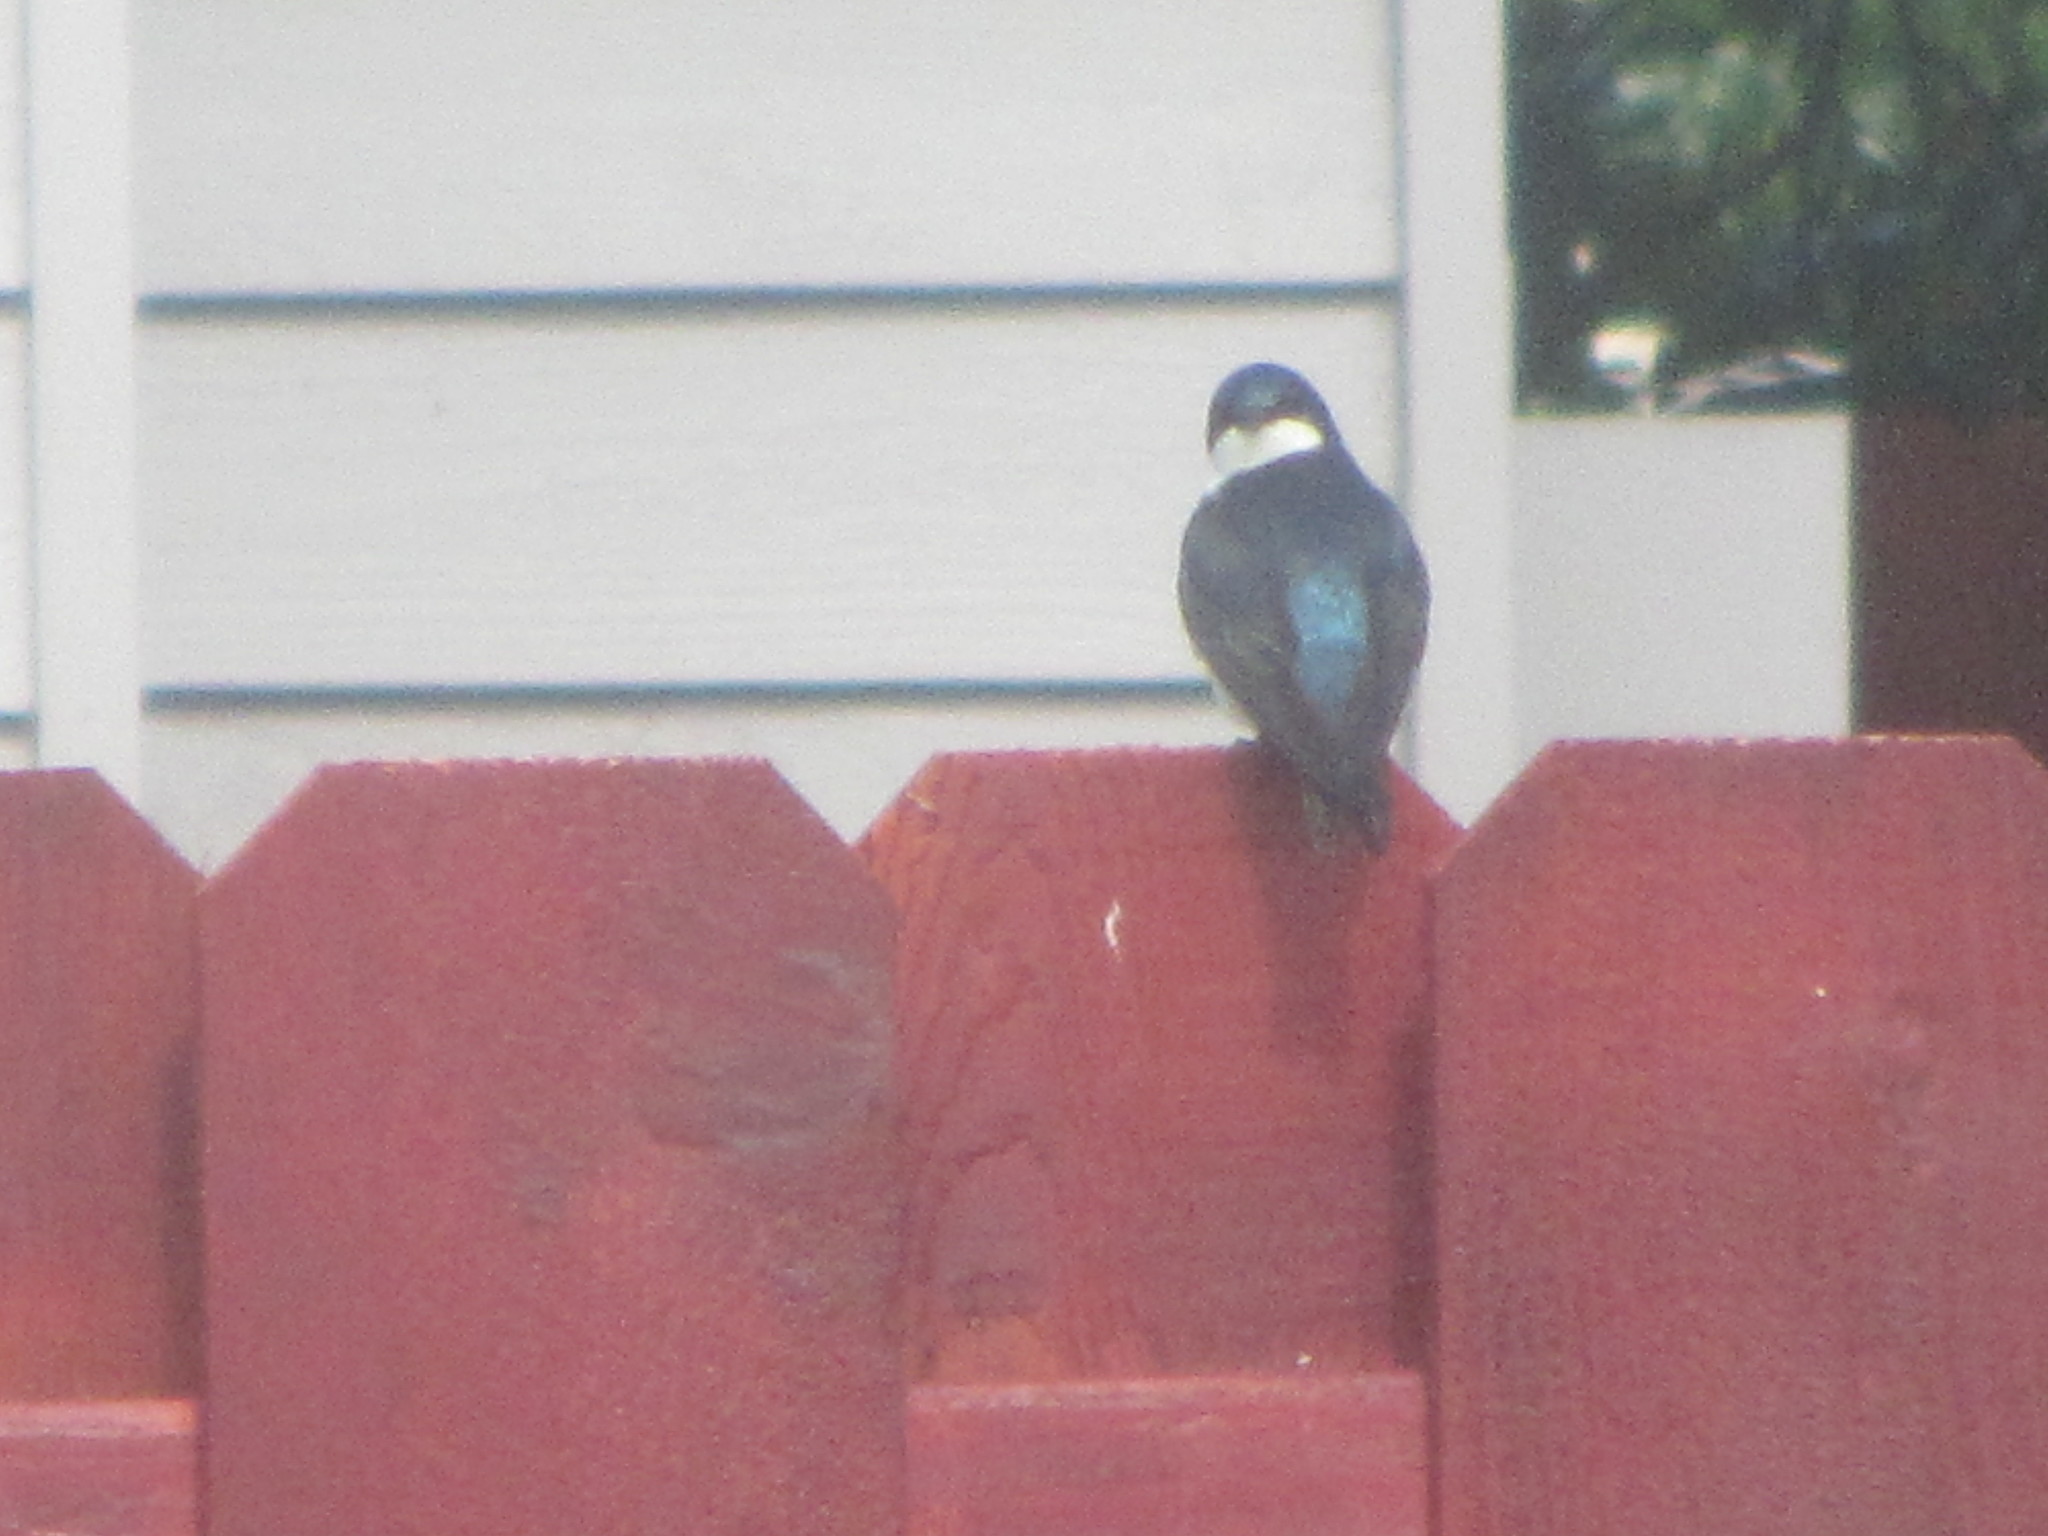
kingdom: Animalia
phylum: Chordata
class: Aves
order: Passeriformes
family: Hirundinidae
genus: Tachycineta
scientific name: Tachycineta bicolor
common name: Tree swallow
